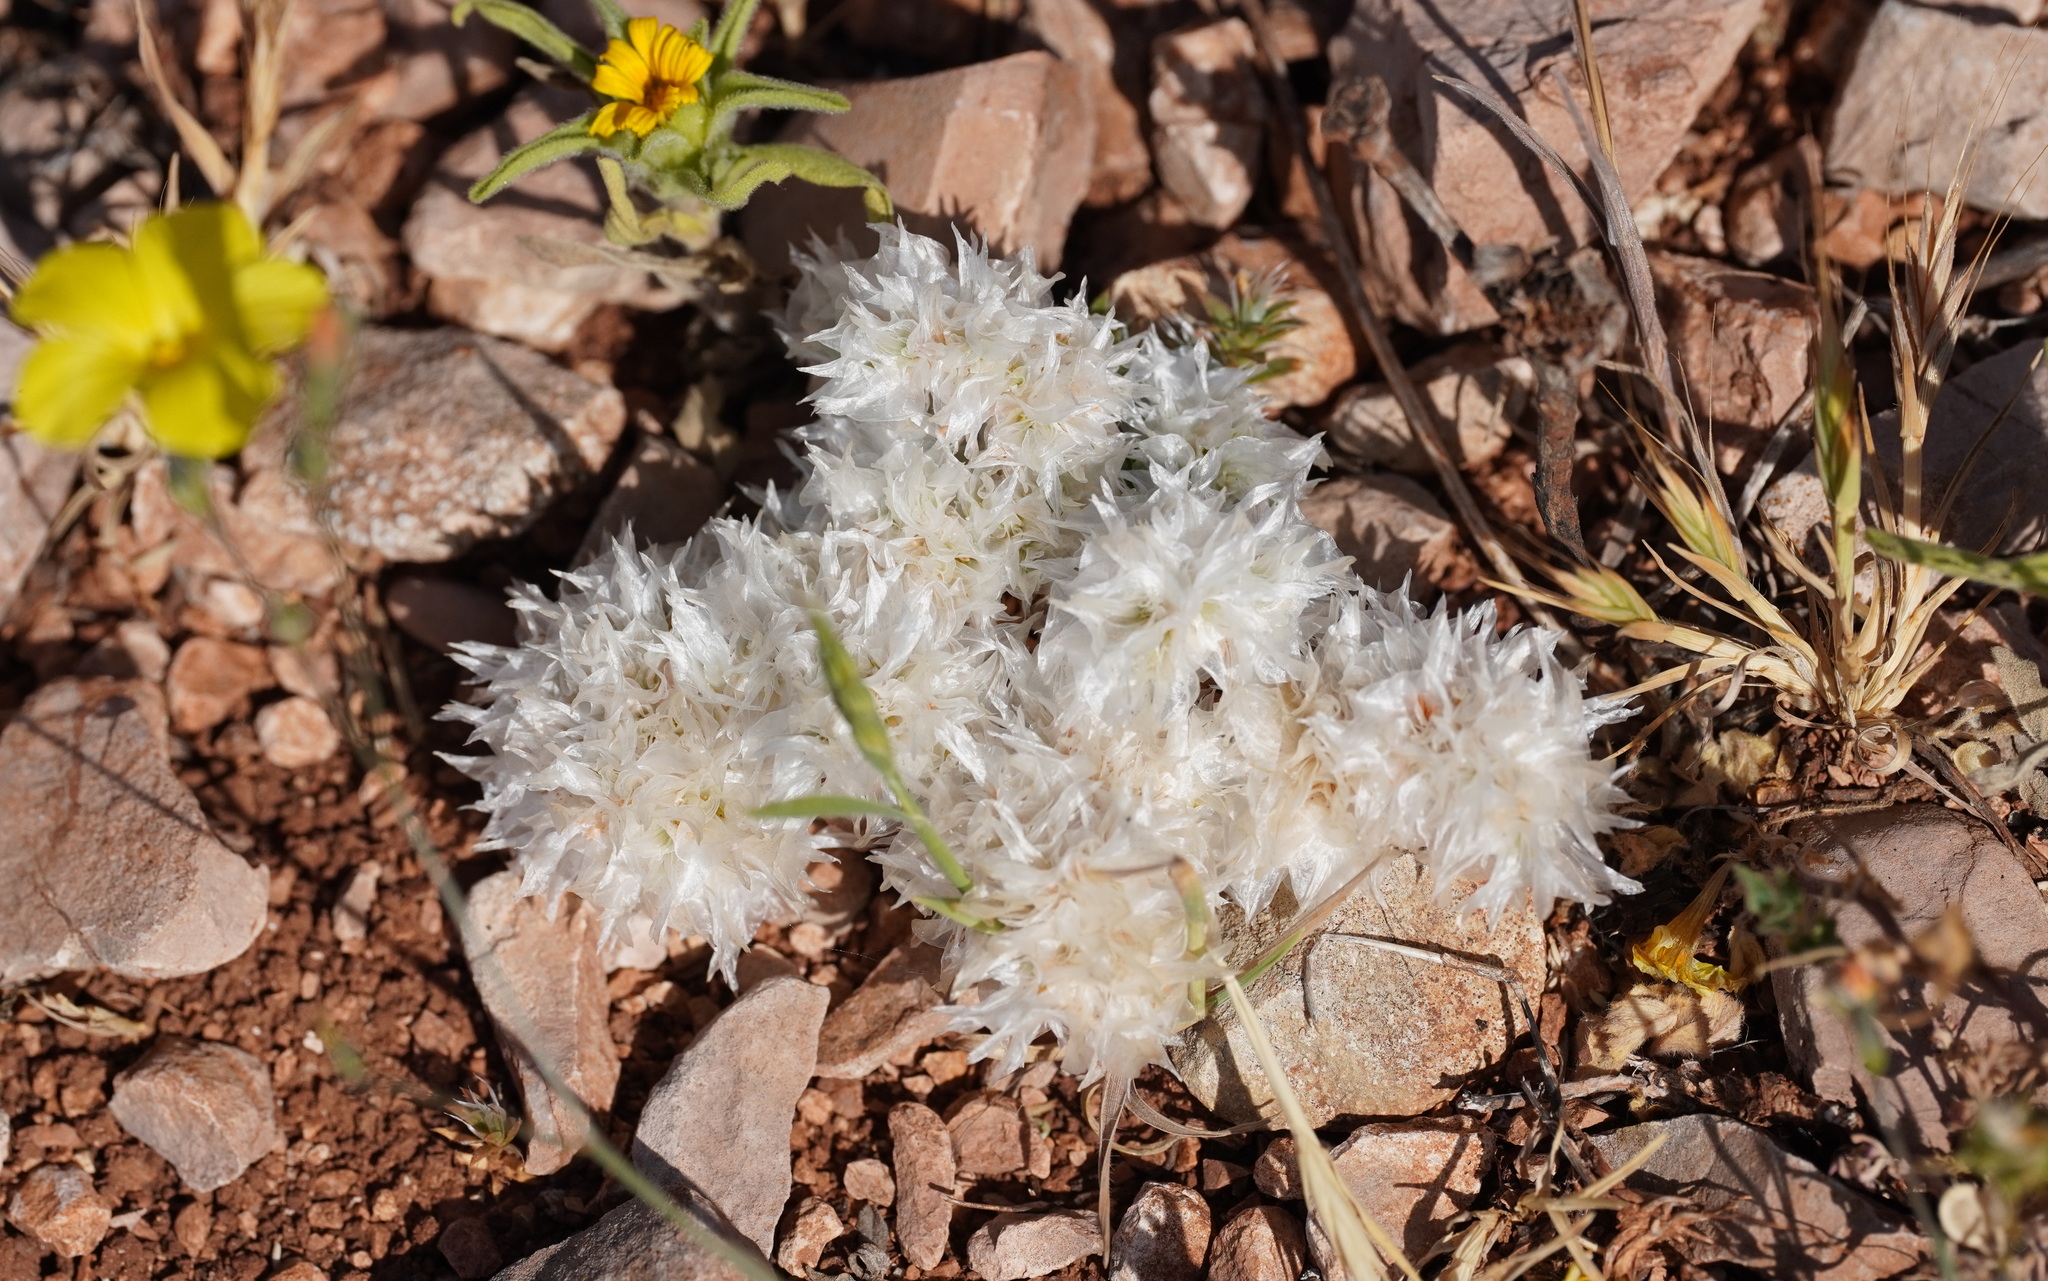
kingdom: Plantae
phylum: Tracheophyta
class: Magnoliopsida
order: Caryophyllales
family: Caryophyllaceae
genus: Paronychia
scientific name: Paronychia argentea
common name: Silver nailroot
